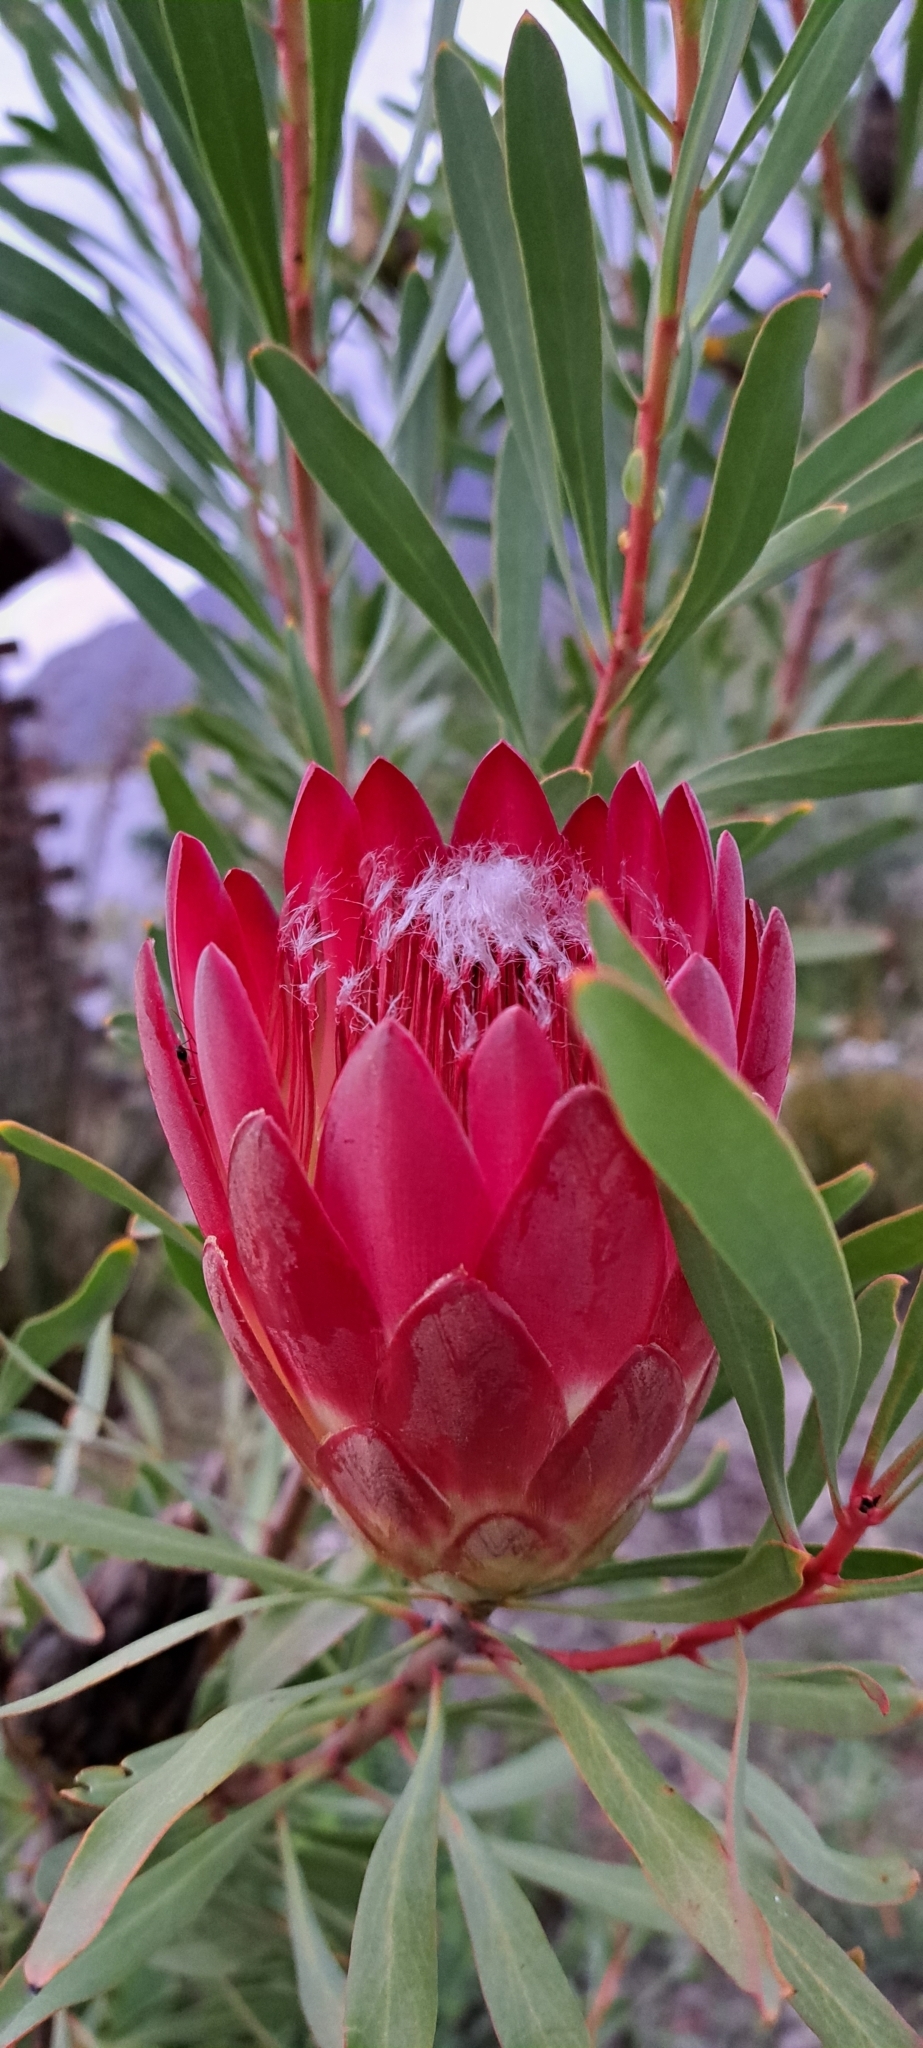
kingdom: Plantae
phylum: Tracheophyta
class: Magnoliopsida
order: Proteales
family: Proteaceae
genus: Protea
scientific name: Protea repens
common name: Sugarbush
